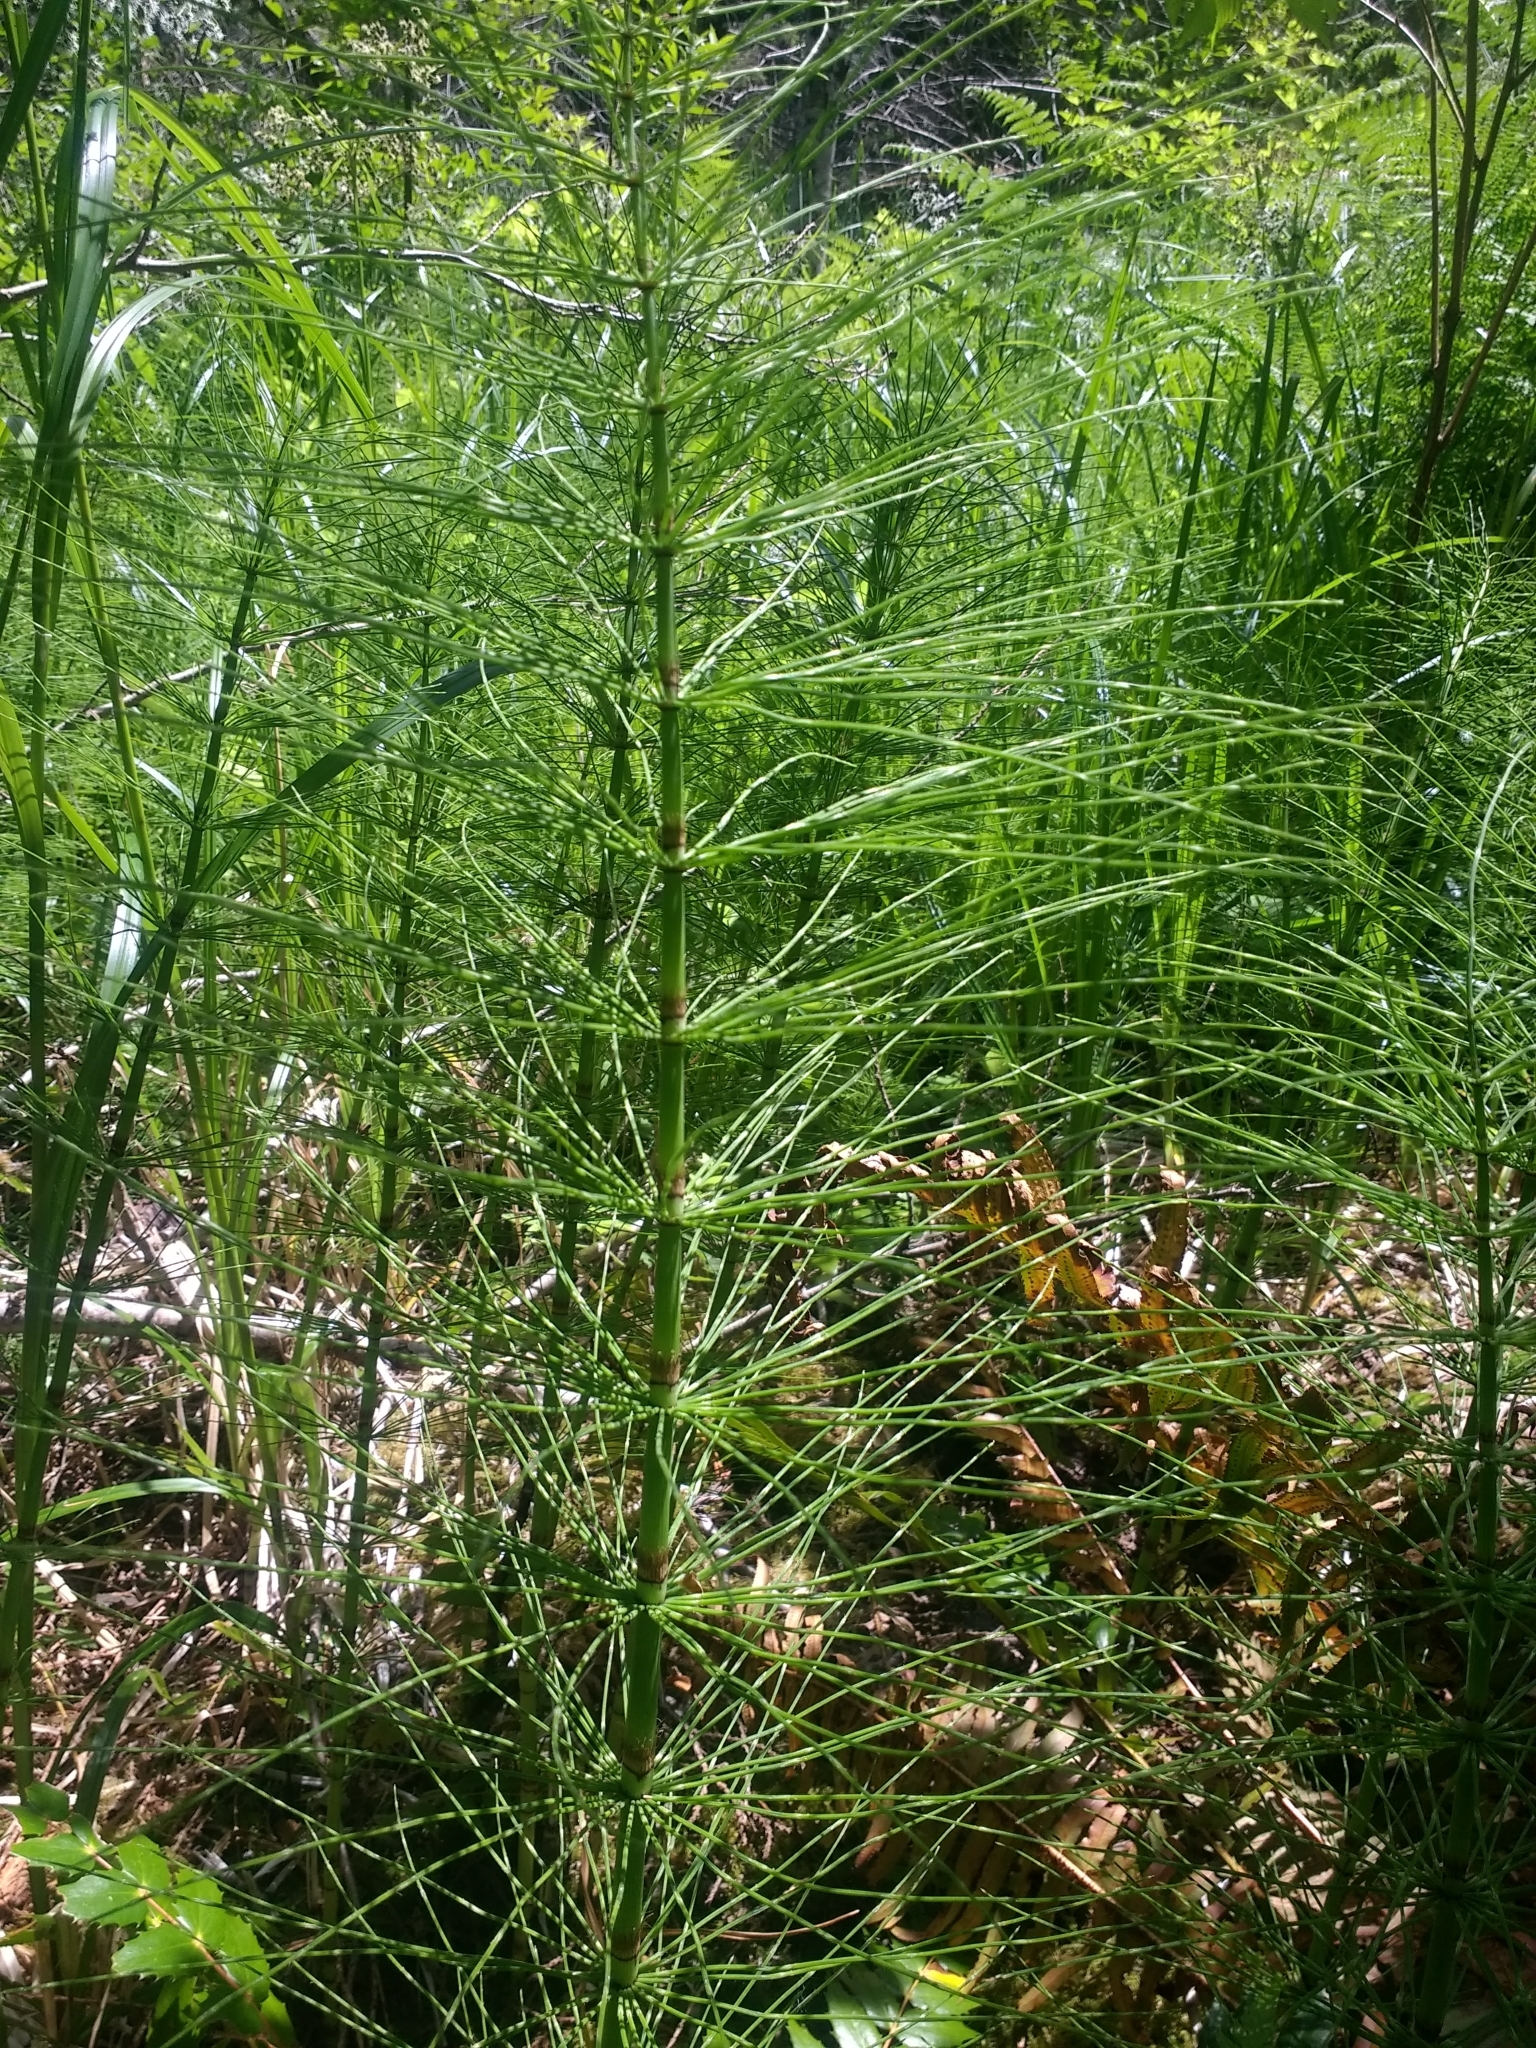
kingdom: Plantae
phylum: Tracheophyta
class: Polypodiopsida
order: Equisetales
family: Equisetaceae
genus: Equisetum
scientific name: Equisetum telmateia
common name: Great horsetail
